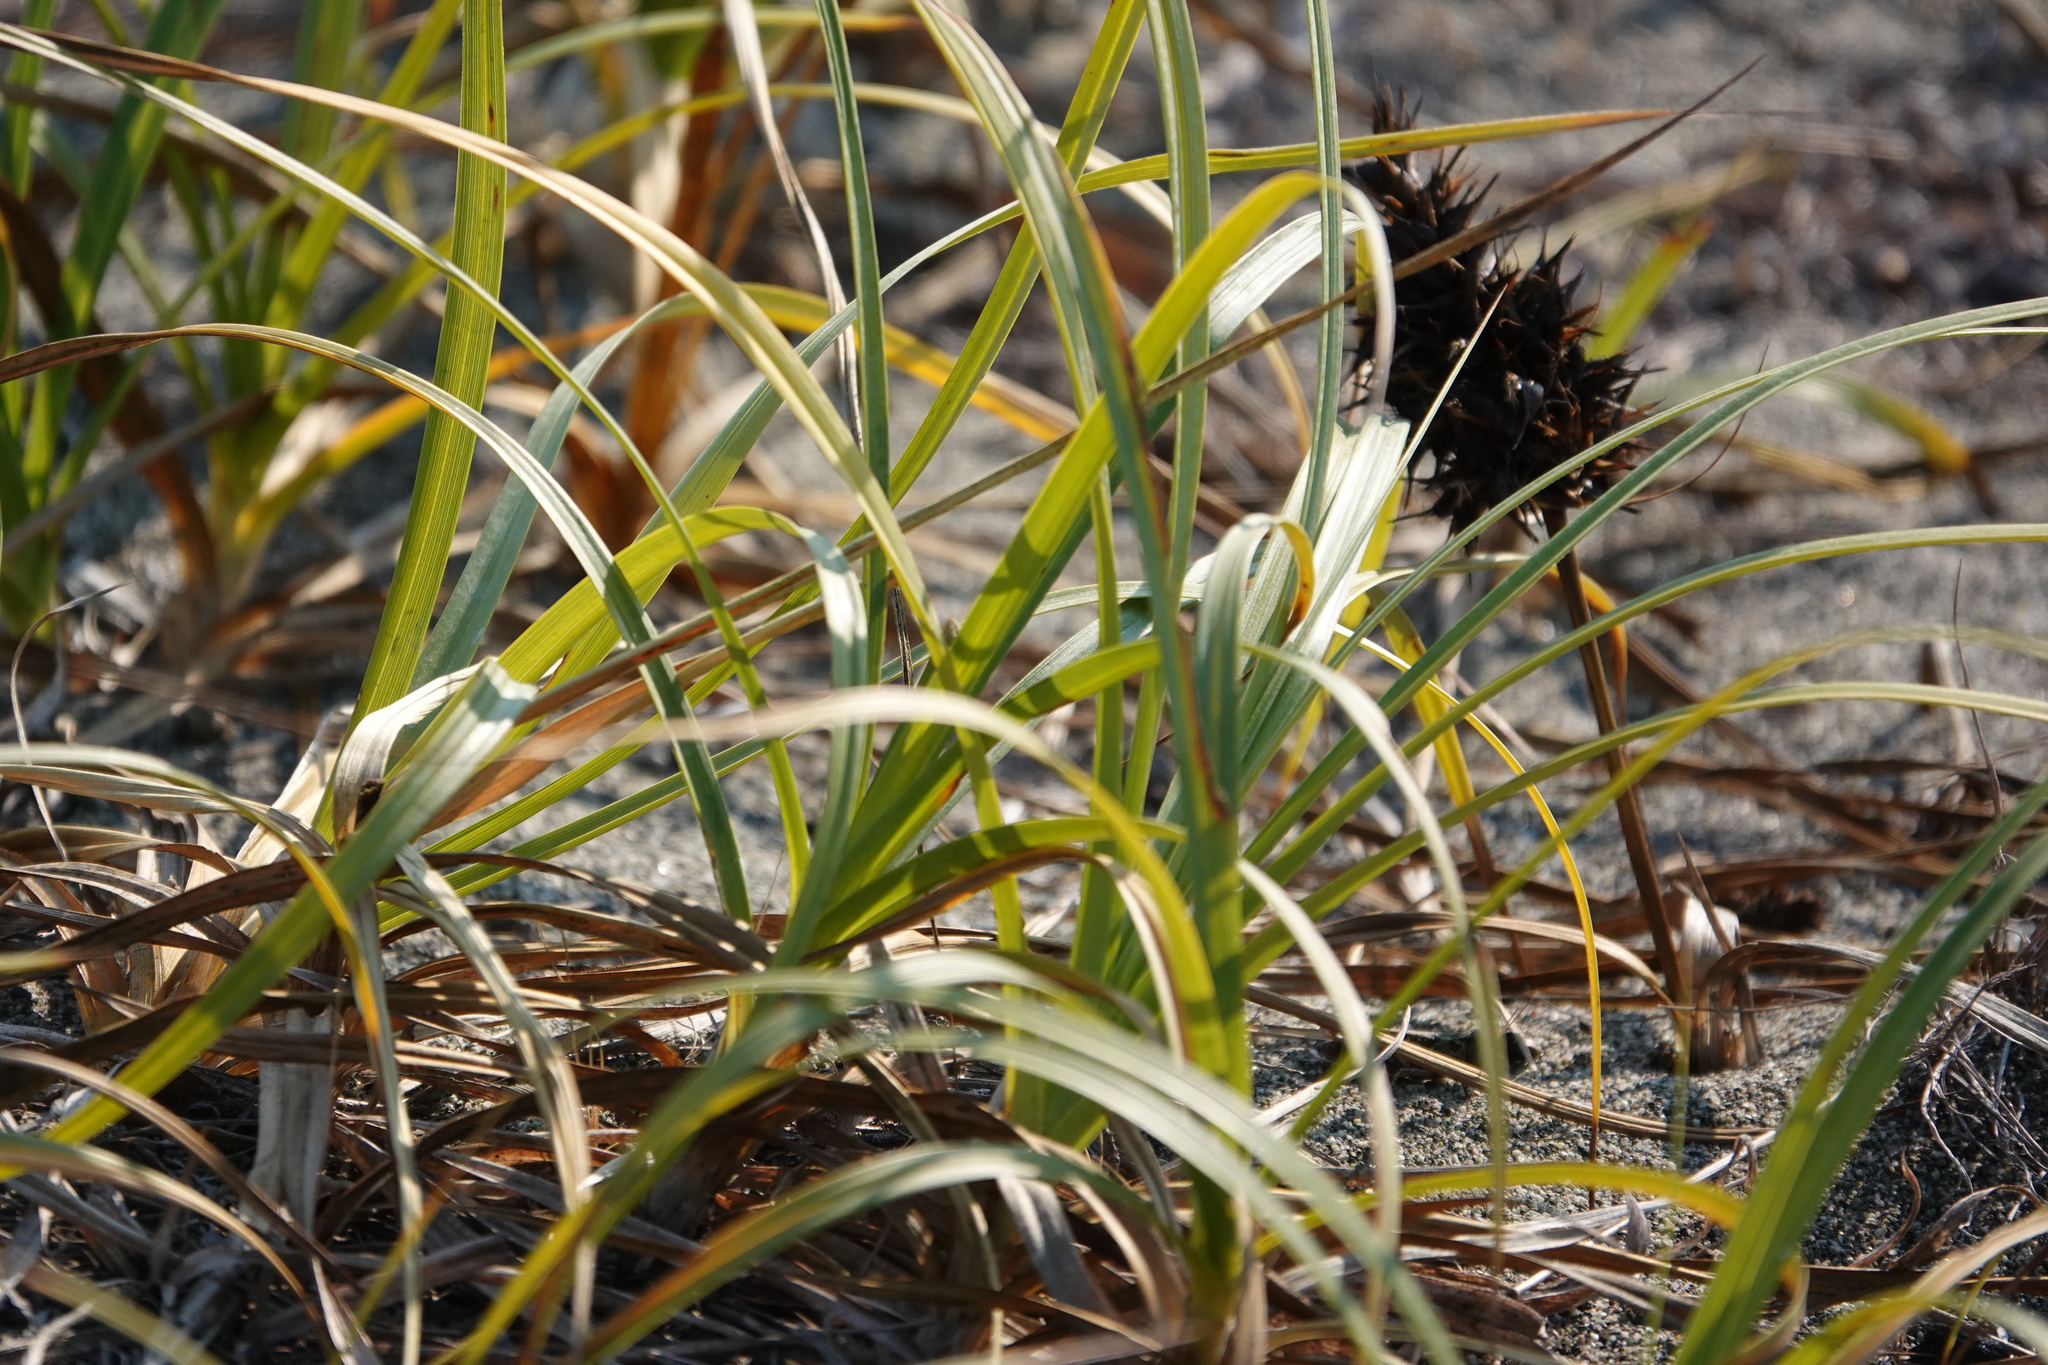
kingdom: Plantae
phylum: Tracheophyta
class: Liliopsida
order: Poales
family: Cyperaceae
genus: Carex
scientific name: Carex macrocephala
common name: Large-head sedge
